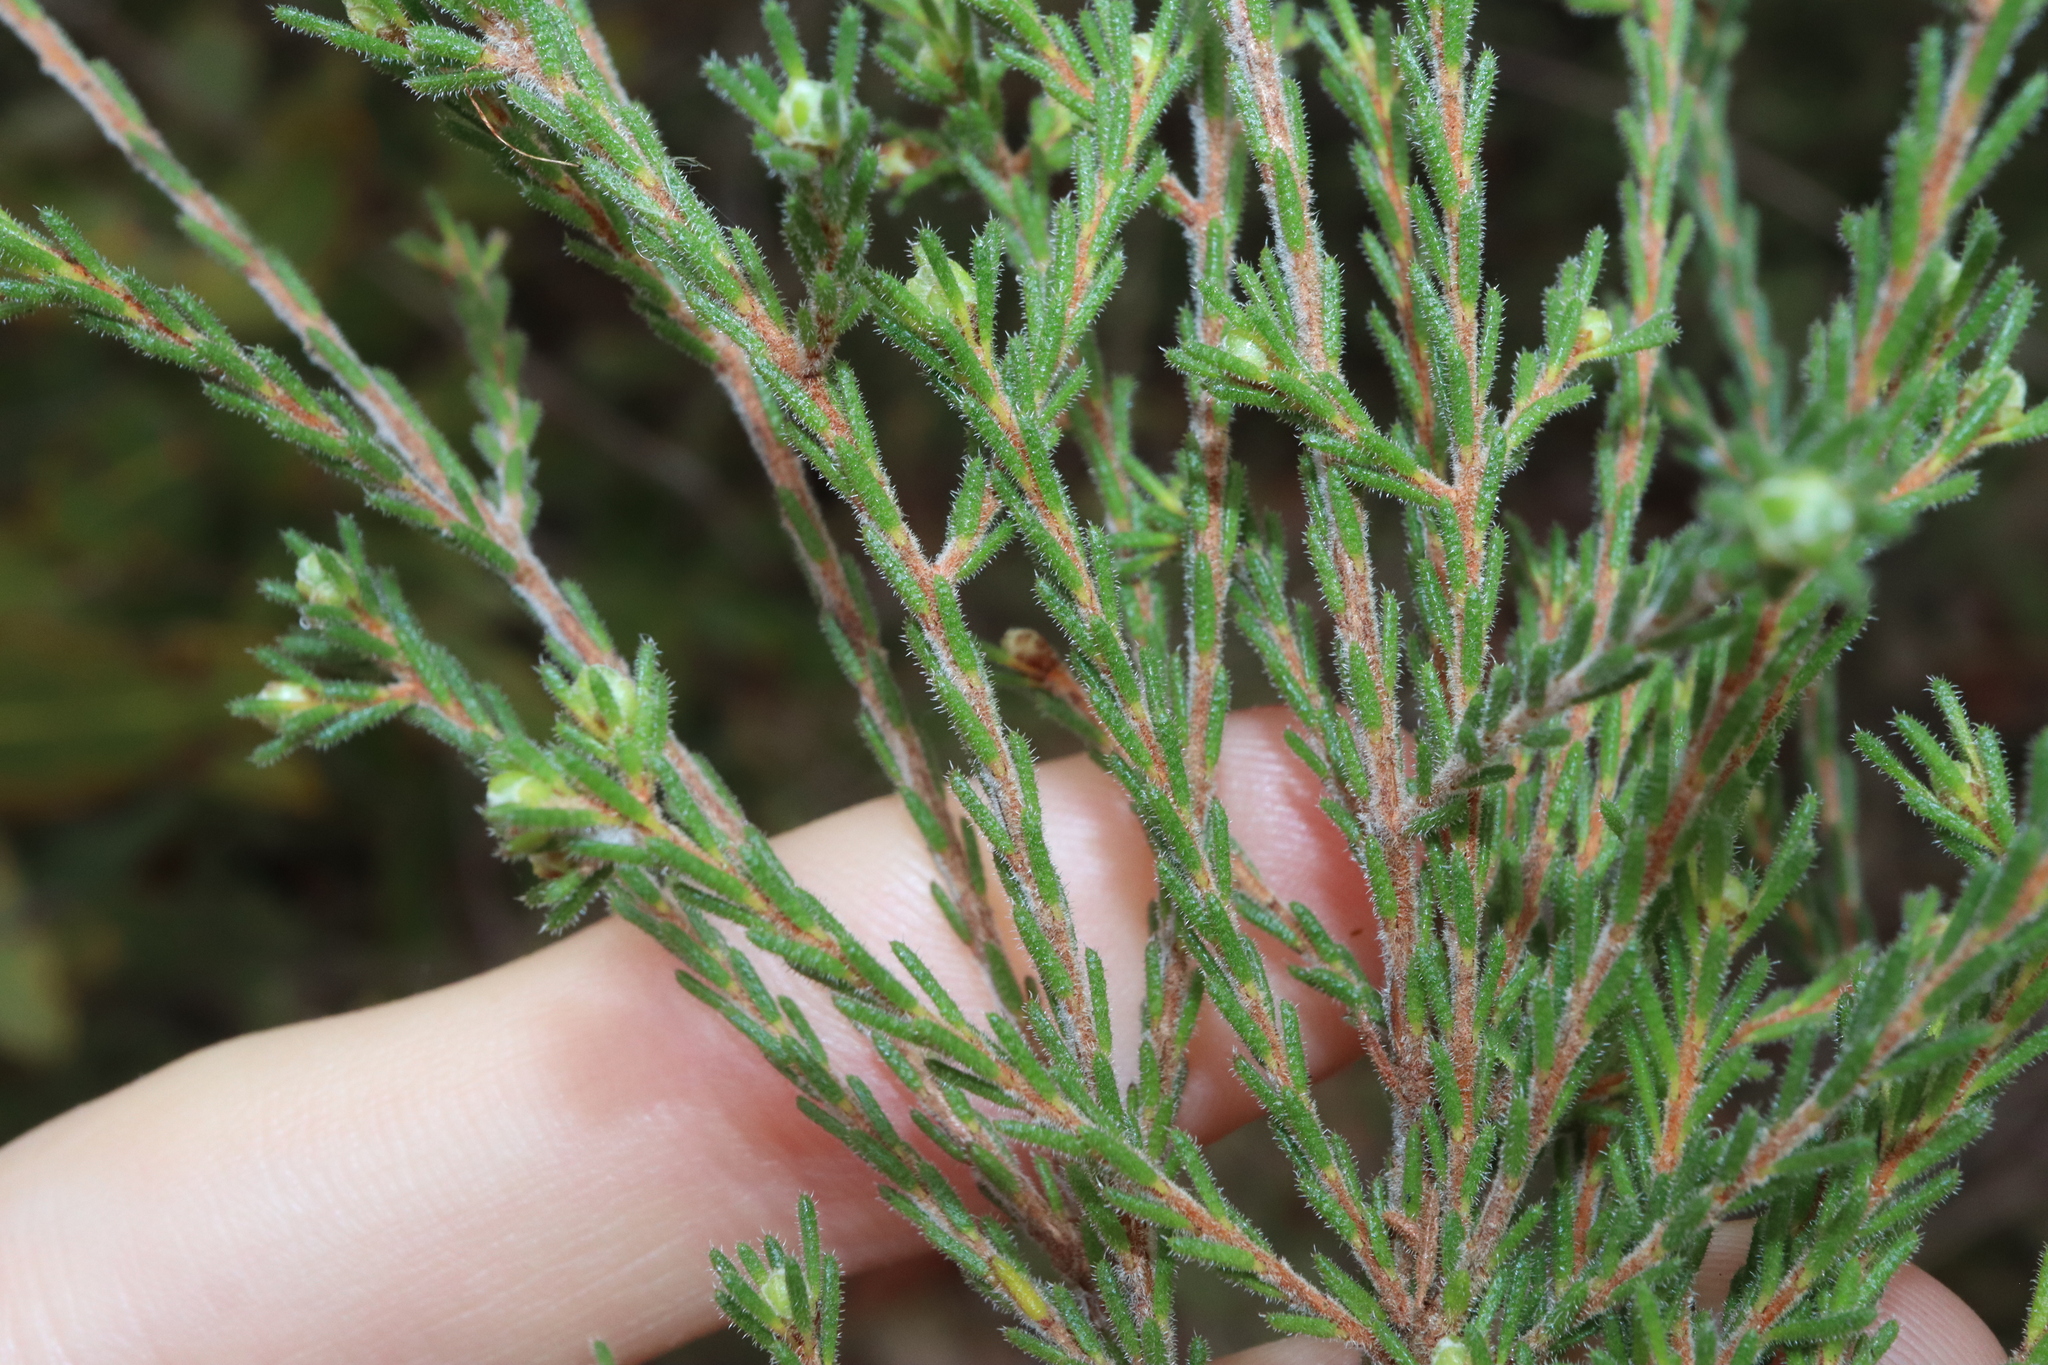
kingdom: Plantae
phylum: Tracheophyta
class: Magnoliopsida
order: Myrtales
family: Myrtaceae
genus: Calytrix
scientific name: Calytrix tetragona
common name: Common fringe myrtle
